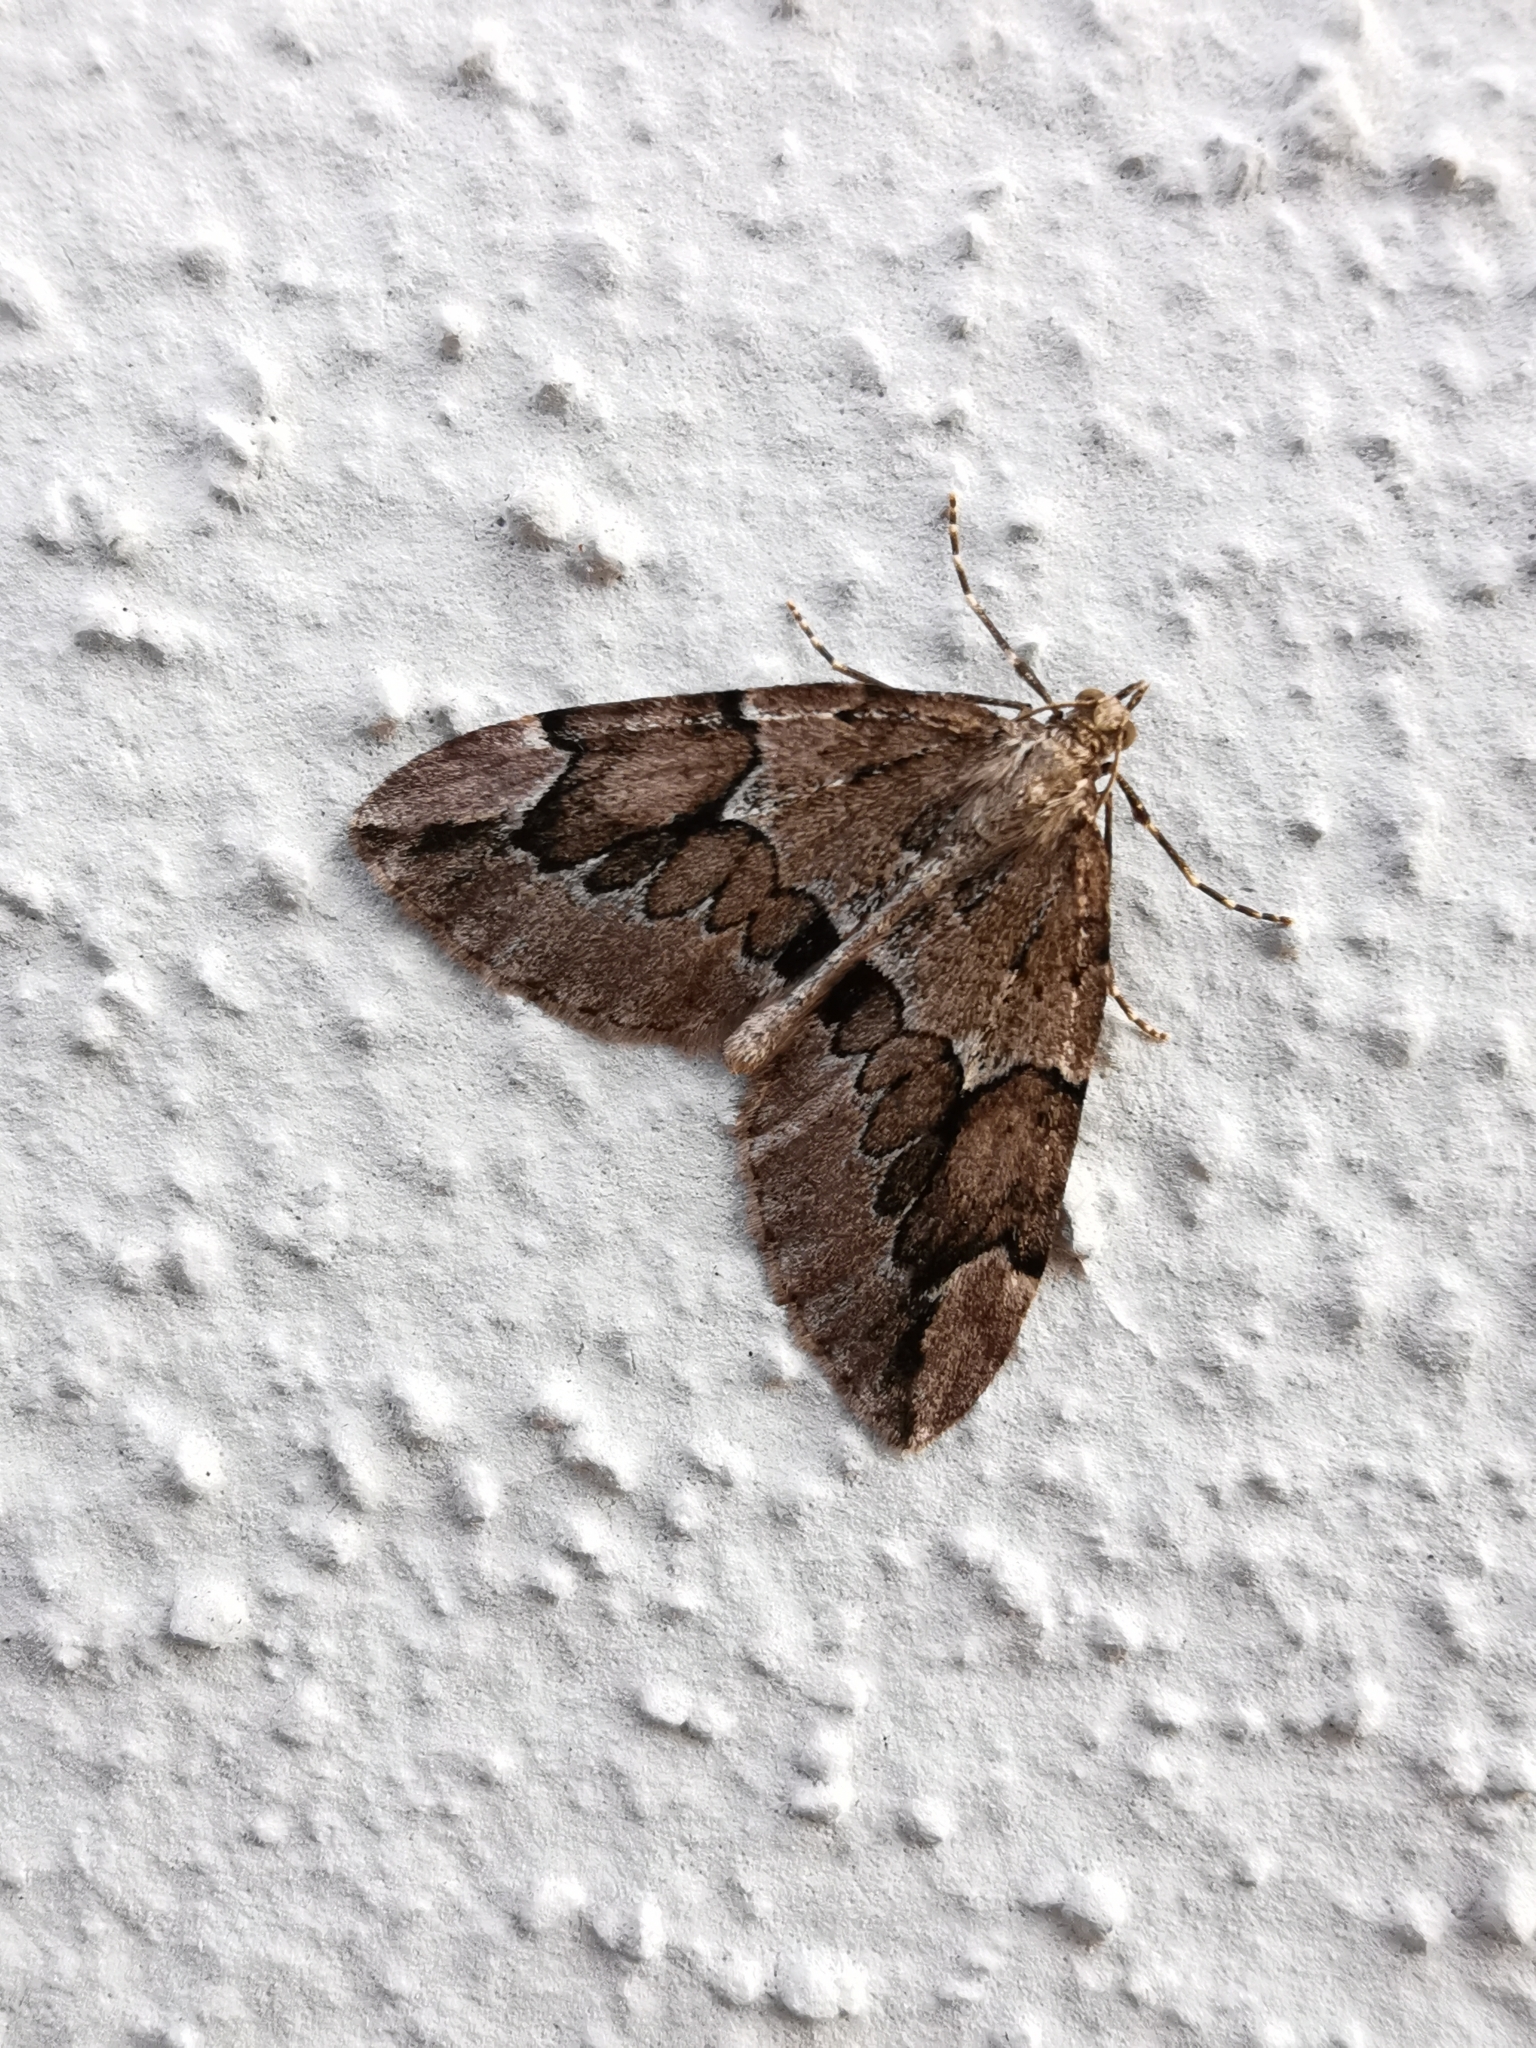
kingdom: Animalia
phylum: Arthropoda
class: Insecta
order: Lepidoptera
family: Geometridae
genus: Thera
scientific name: Thera juniperata
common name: Juniper carpet
